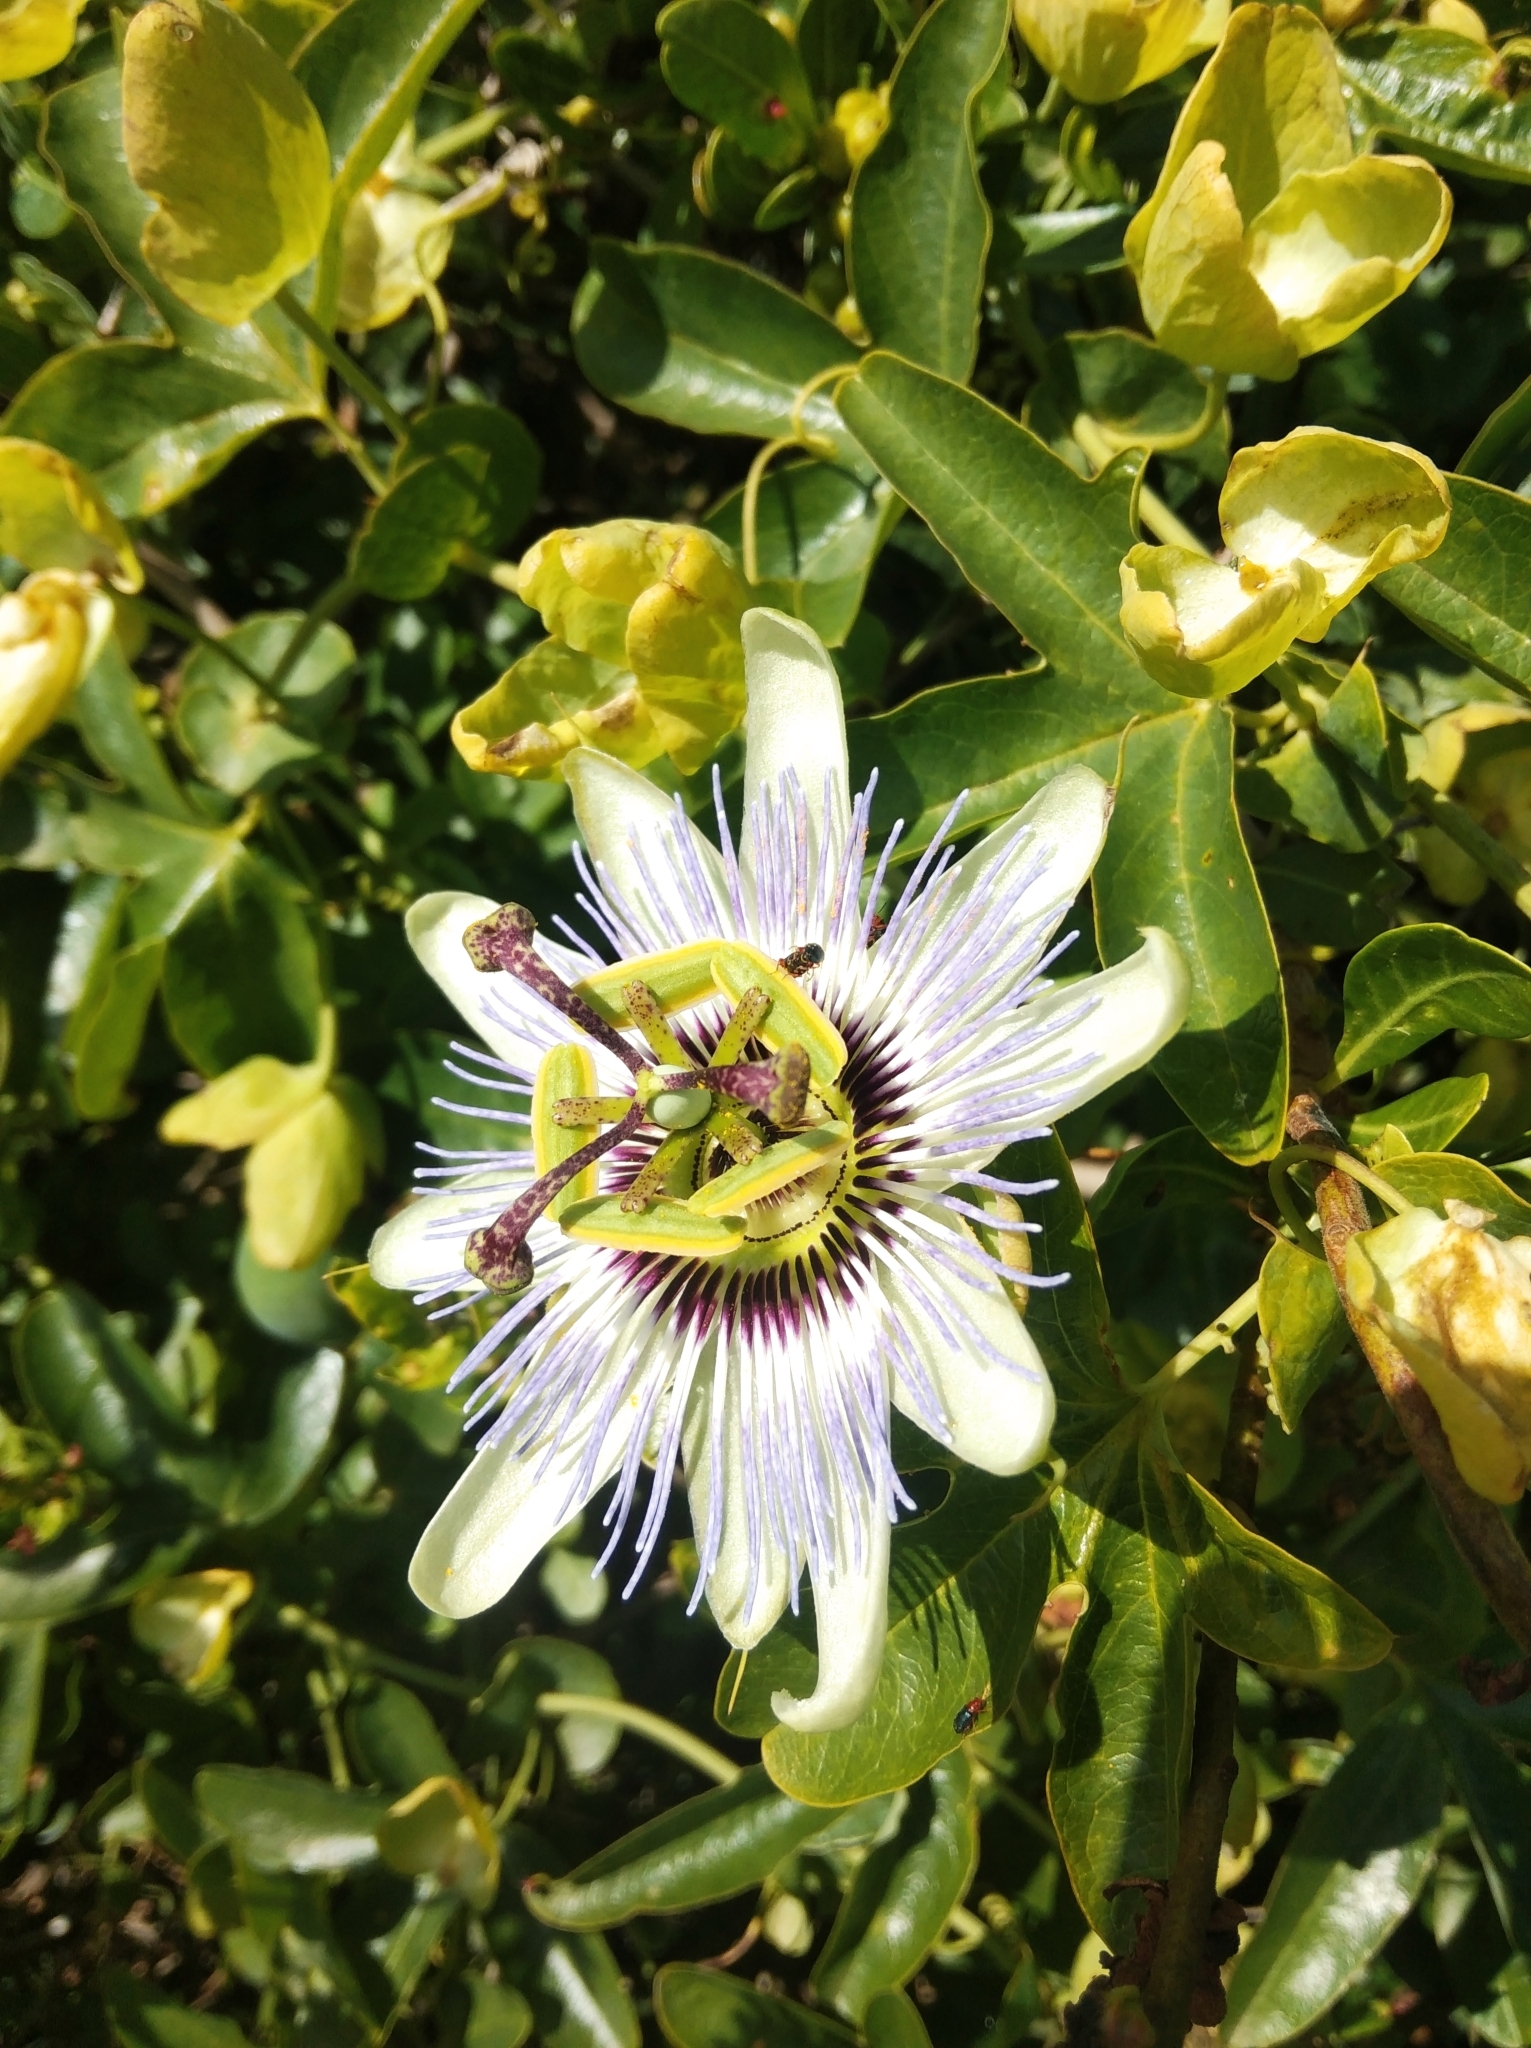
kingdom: Plantae
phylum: Tracheophyta
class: Magnoliopsida
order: Malpighiales
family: Passifloraceae
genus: Passiflora
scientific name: Passiflora caerulea
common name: Blue passionflower
